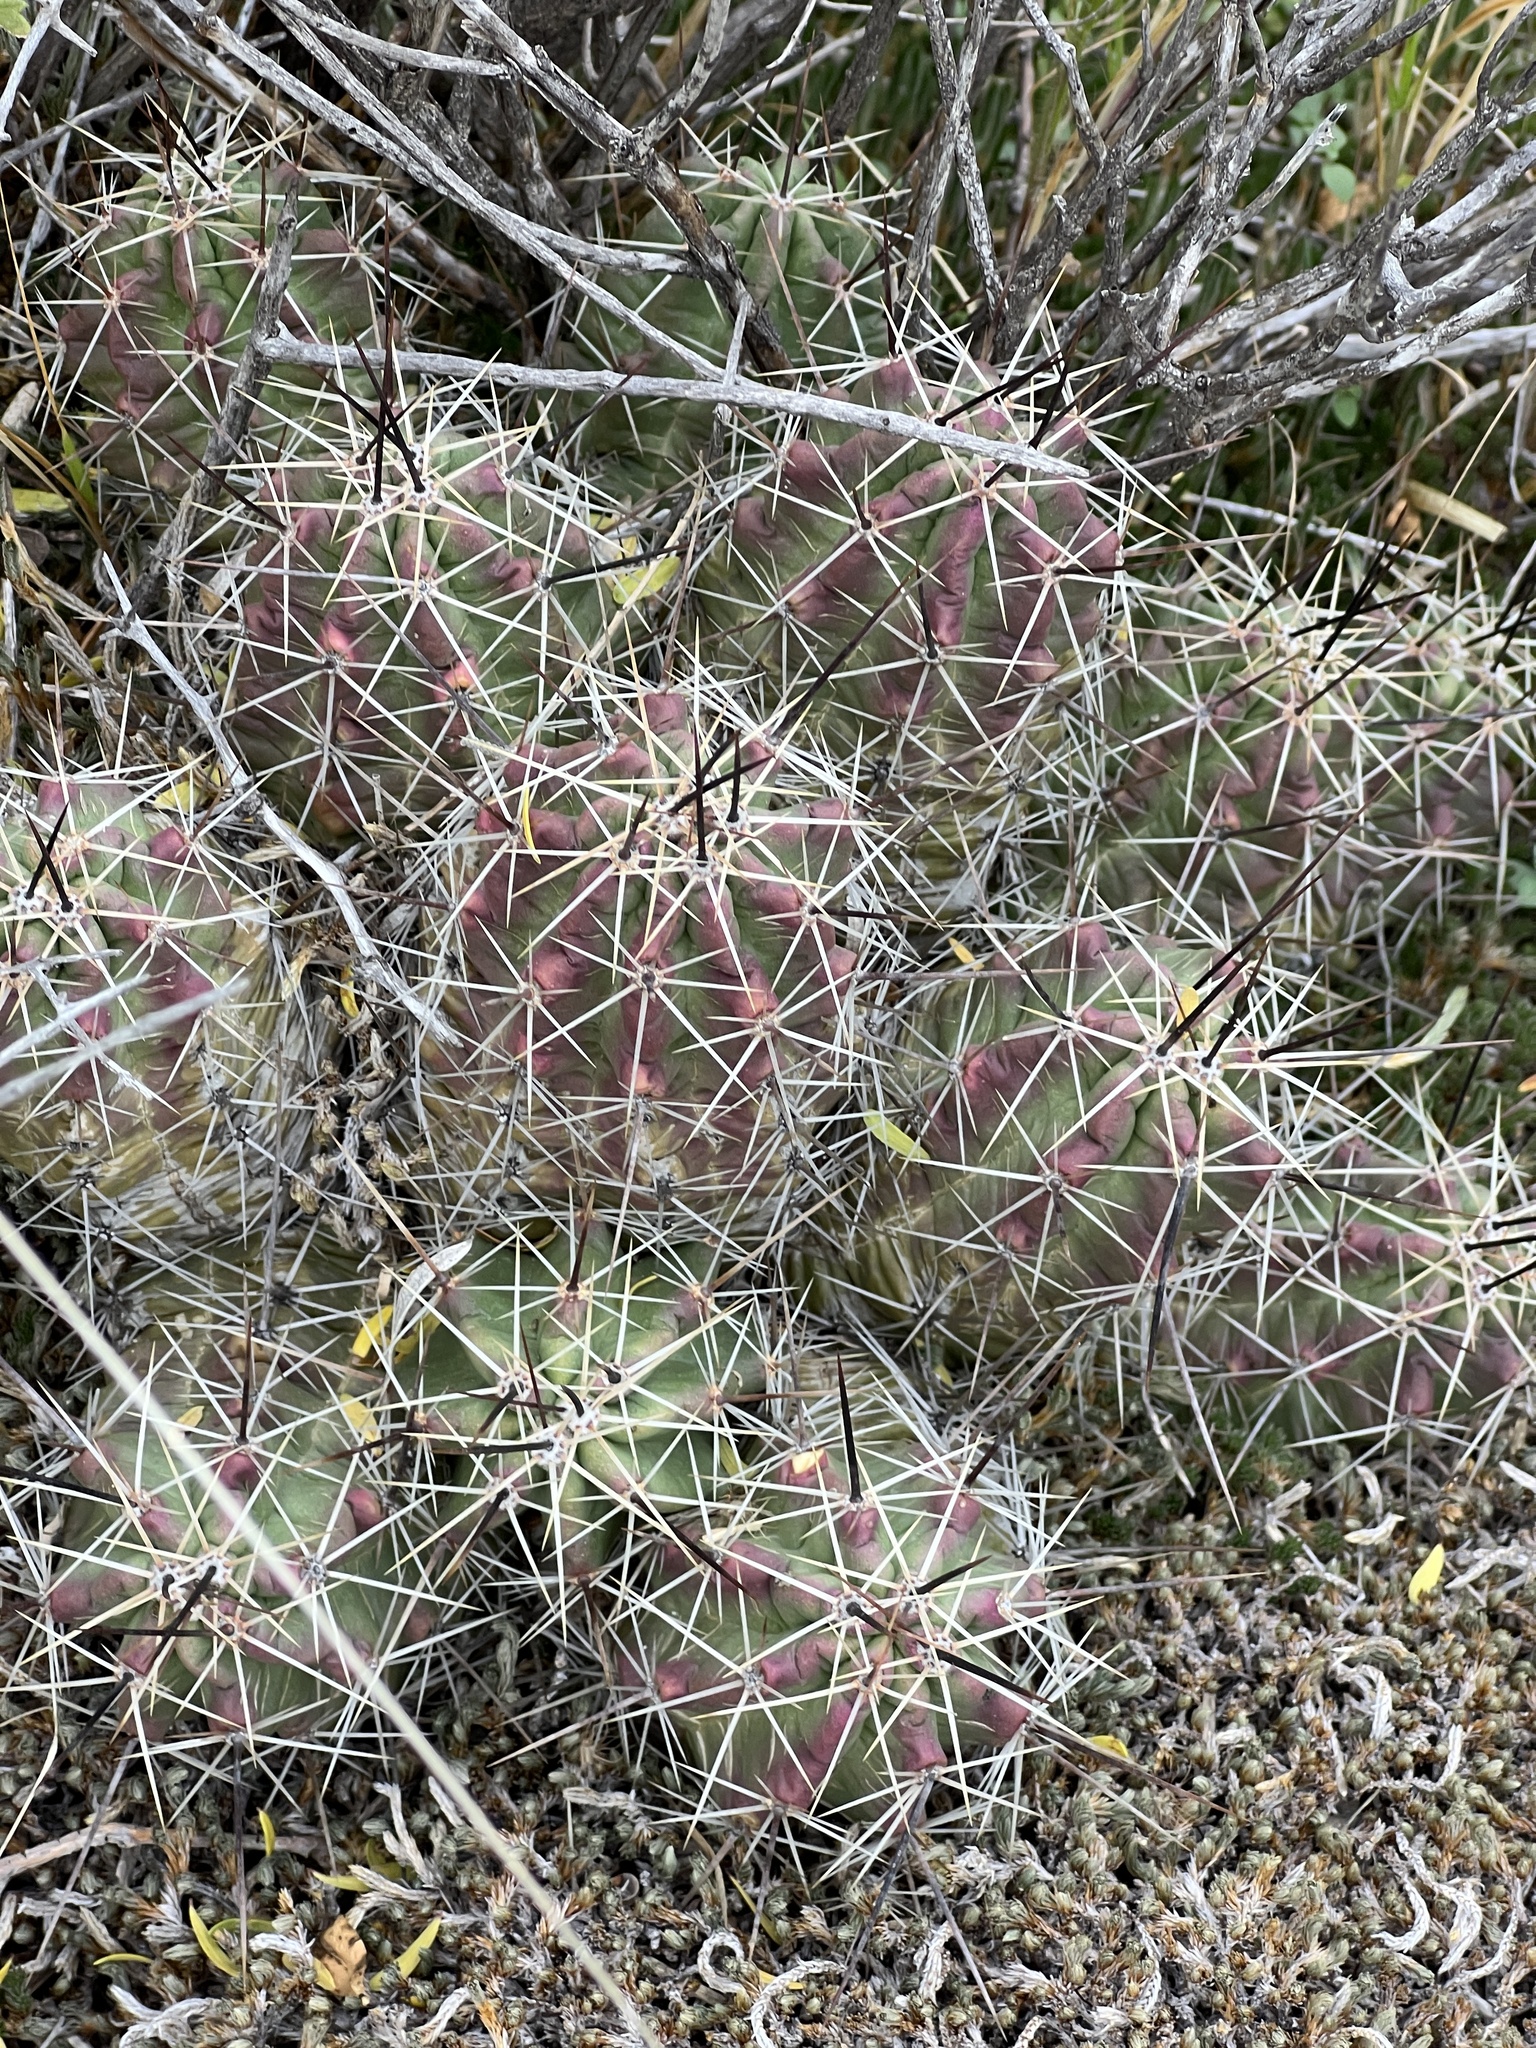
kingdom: Plantae
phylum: Tracheophyta
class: Magnoliopsida
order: Caryophyllales
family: Cactaceae
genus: Echinocereus
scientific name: Echinocereus enneacanthus
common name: Pitaya
